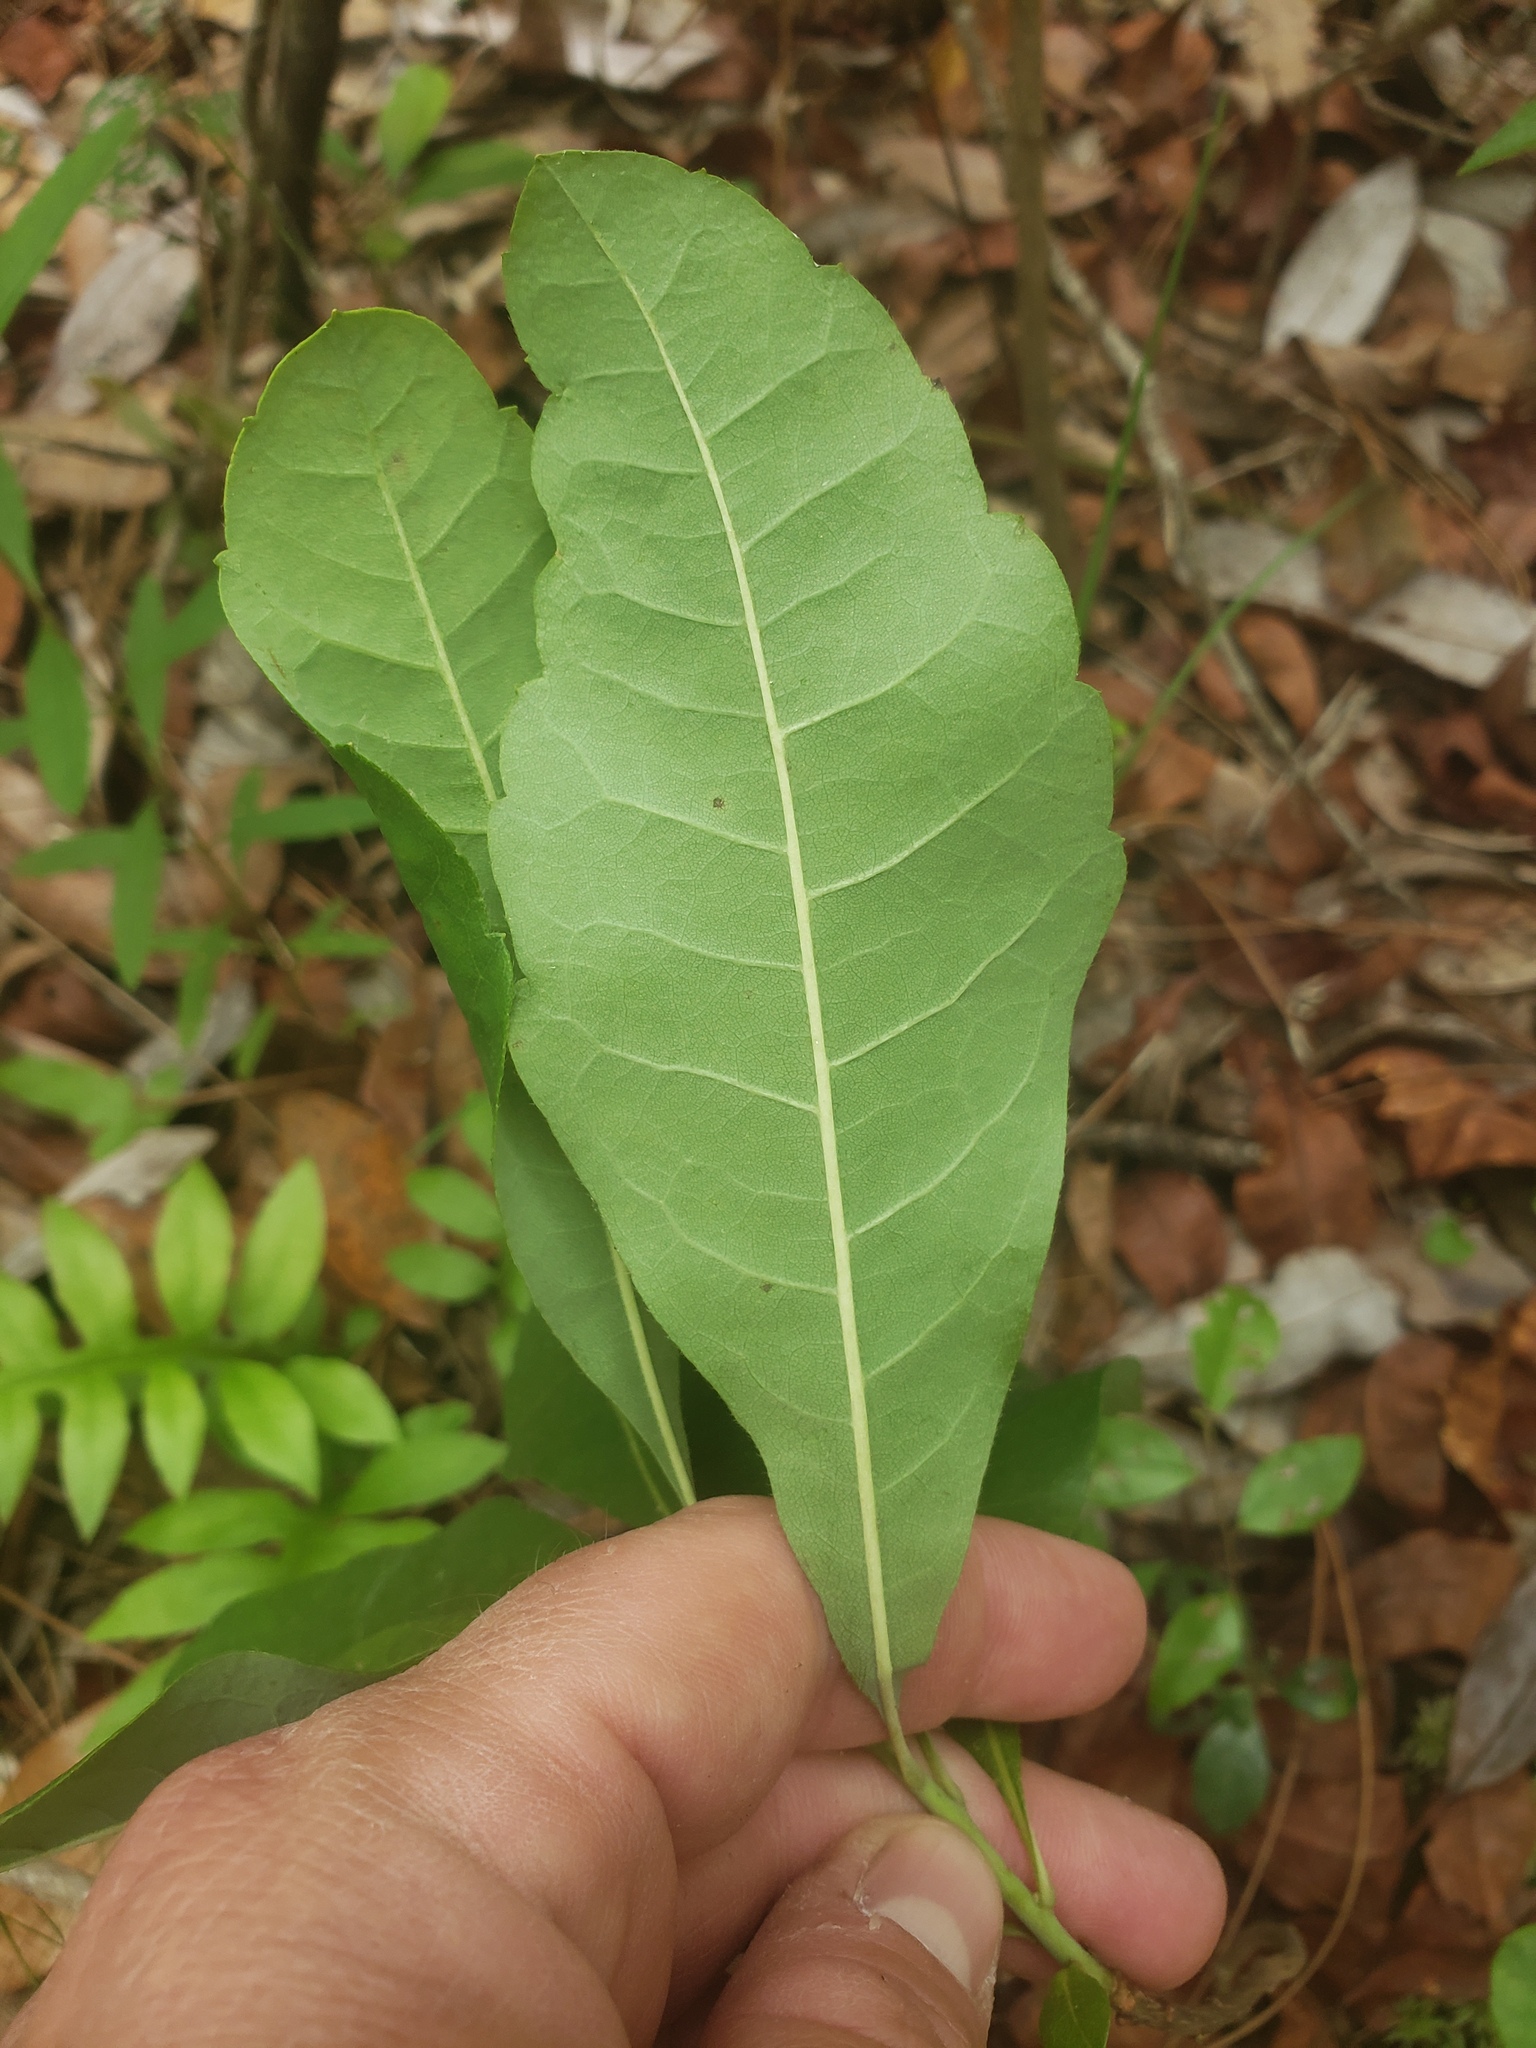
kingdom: Plantae
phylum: Tracheophyta
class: Magnoliopsida
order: Fagales
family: Myricaceae
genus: Morella
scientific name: Morella caroliniensis
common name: Evergreen bayberry
